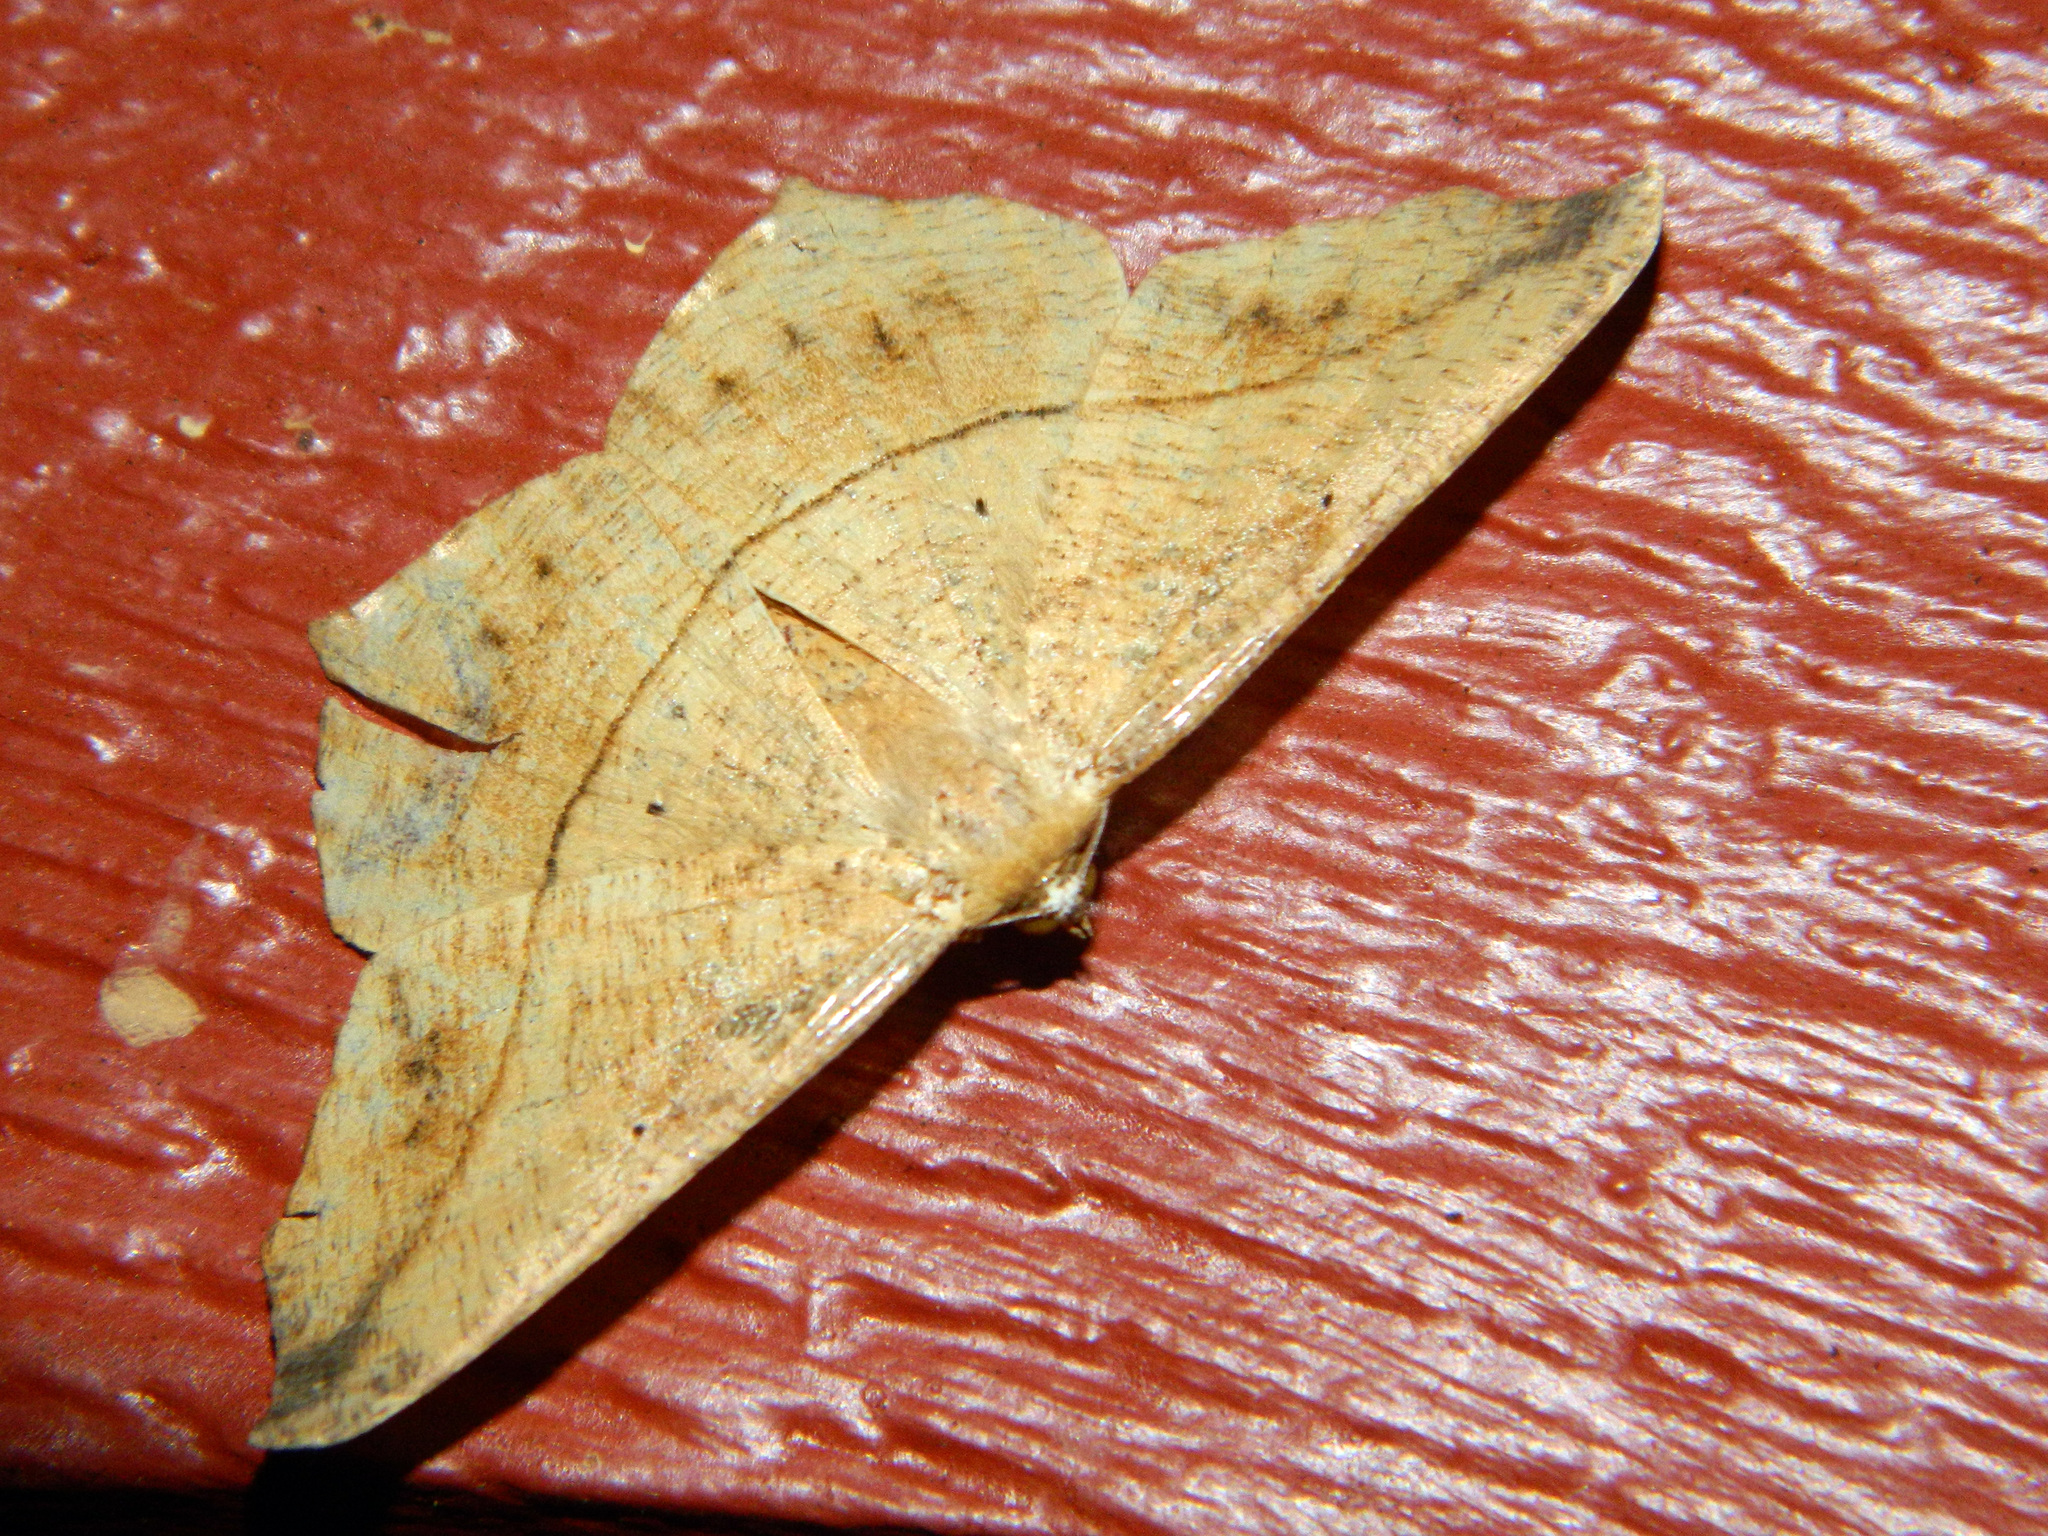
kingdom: Animalia
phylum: Arthropoda
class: Insecta
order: Lepidoptera
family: Geometridae
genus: Prochoerodes
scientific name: Prochoerodes lineola
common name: Large maple spanworm
